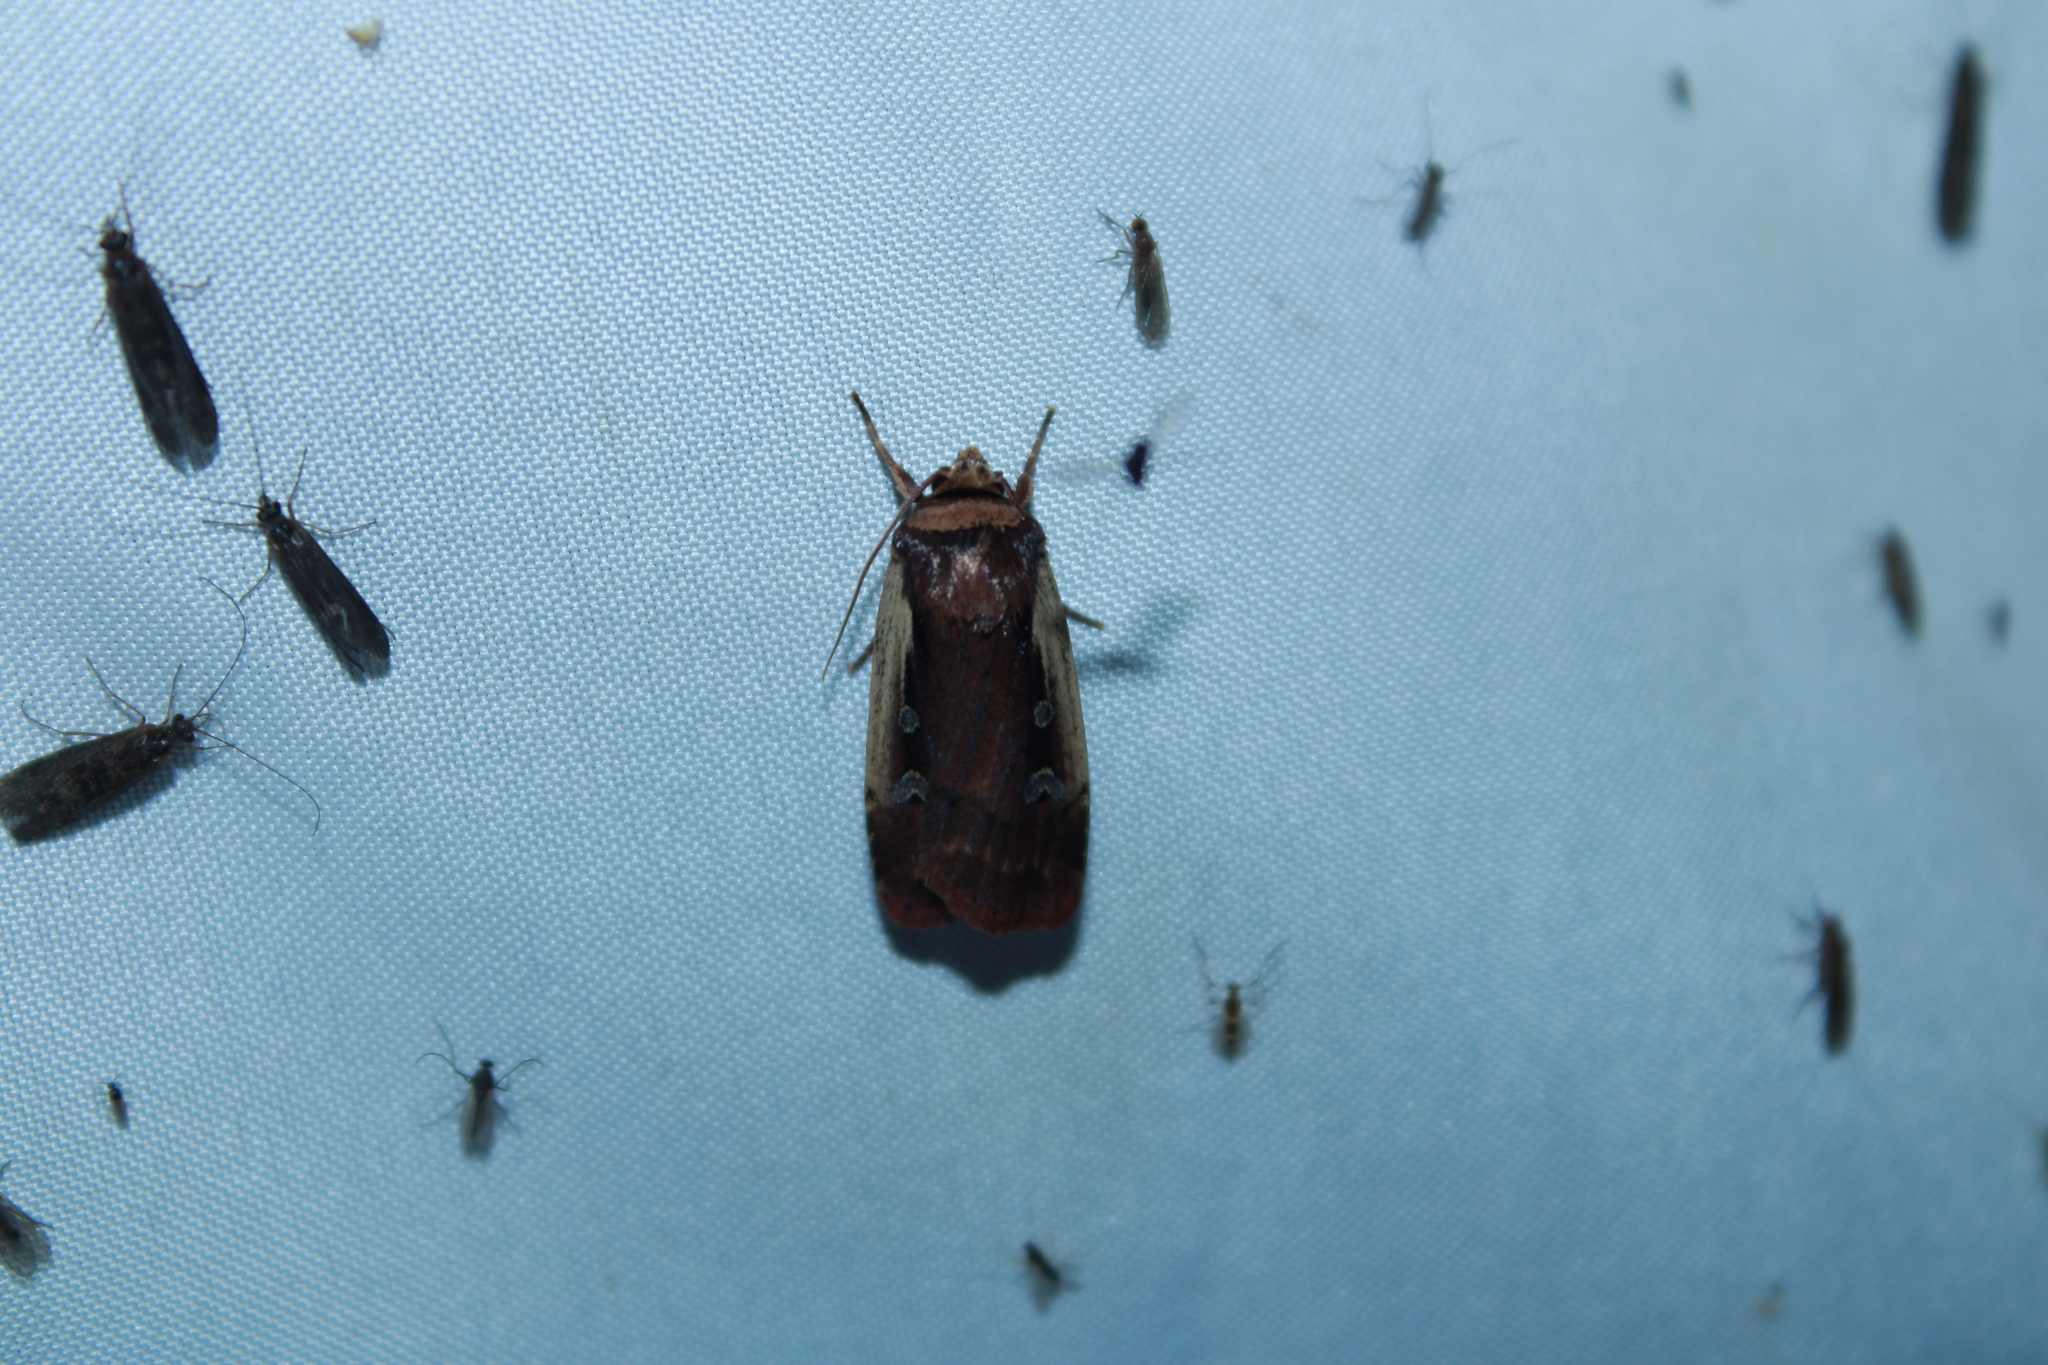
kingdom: Animalia
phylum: Arthropoda
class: Insecta
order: Lepidoptera
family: Noctuidae
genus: Ochropleura
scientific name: Ochropleura implecta
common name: Flame-shouldered dart
